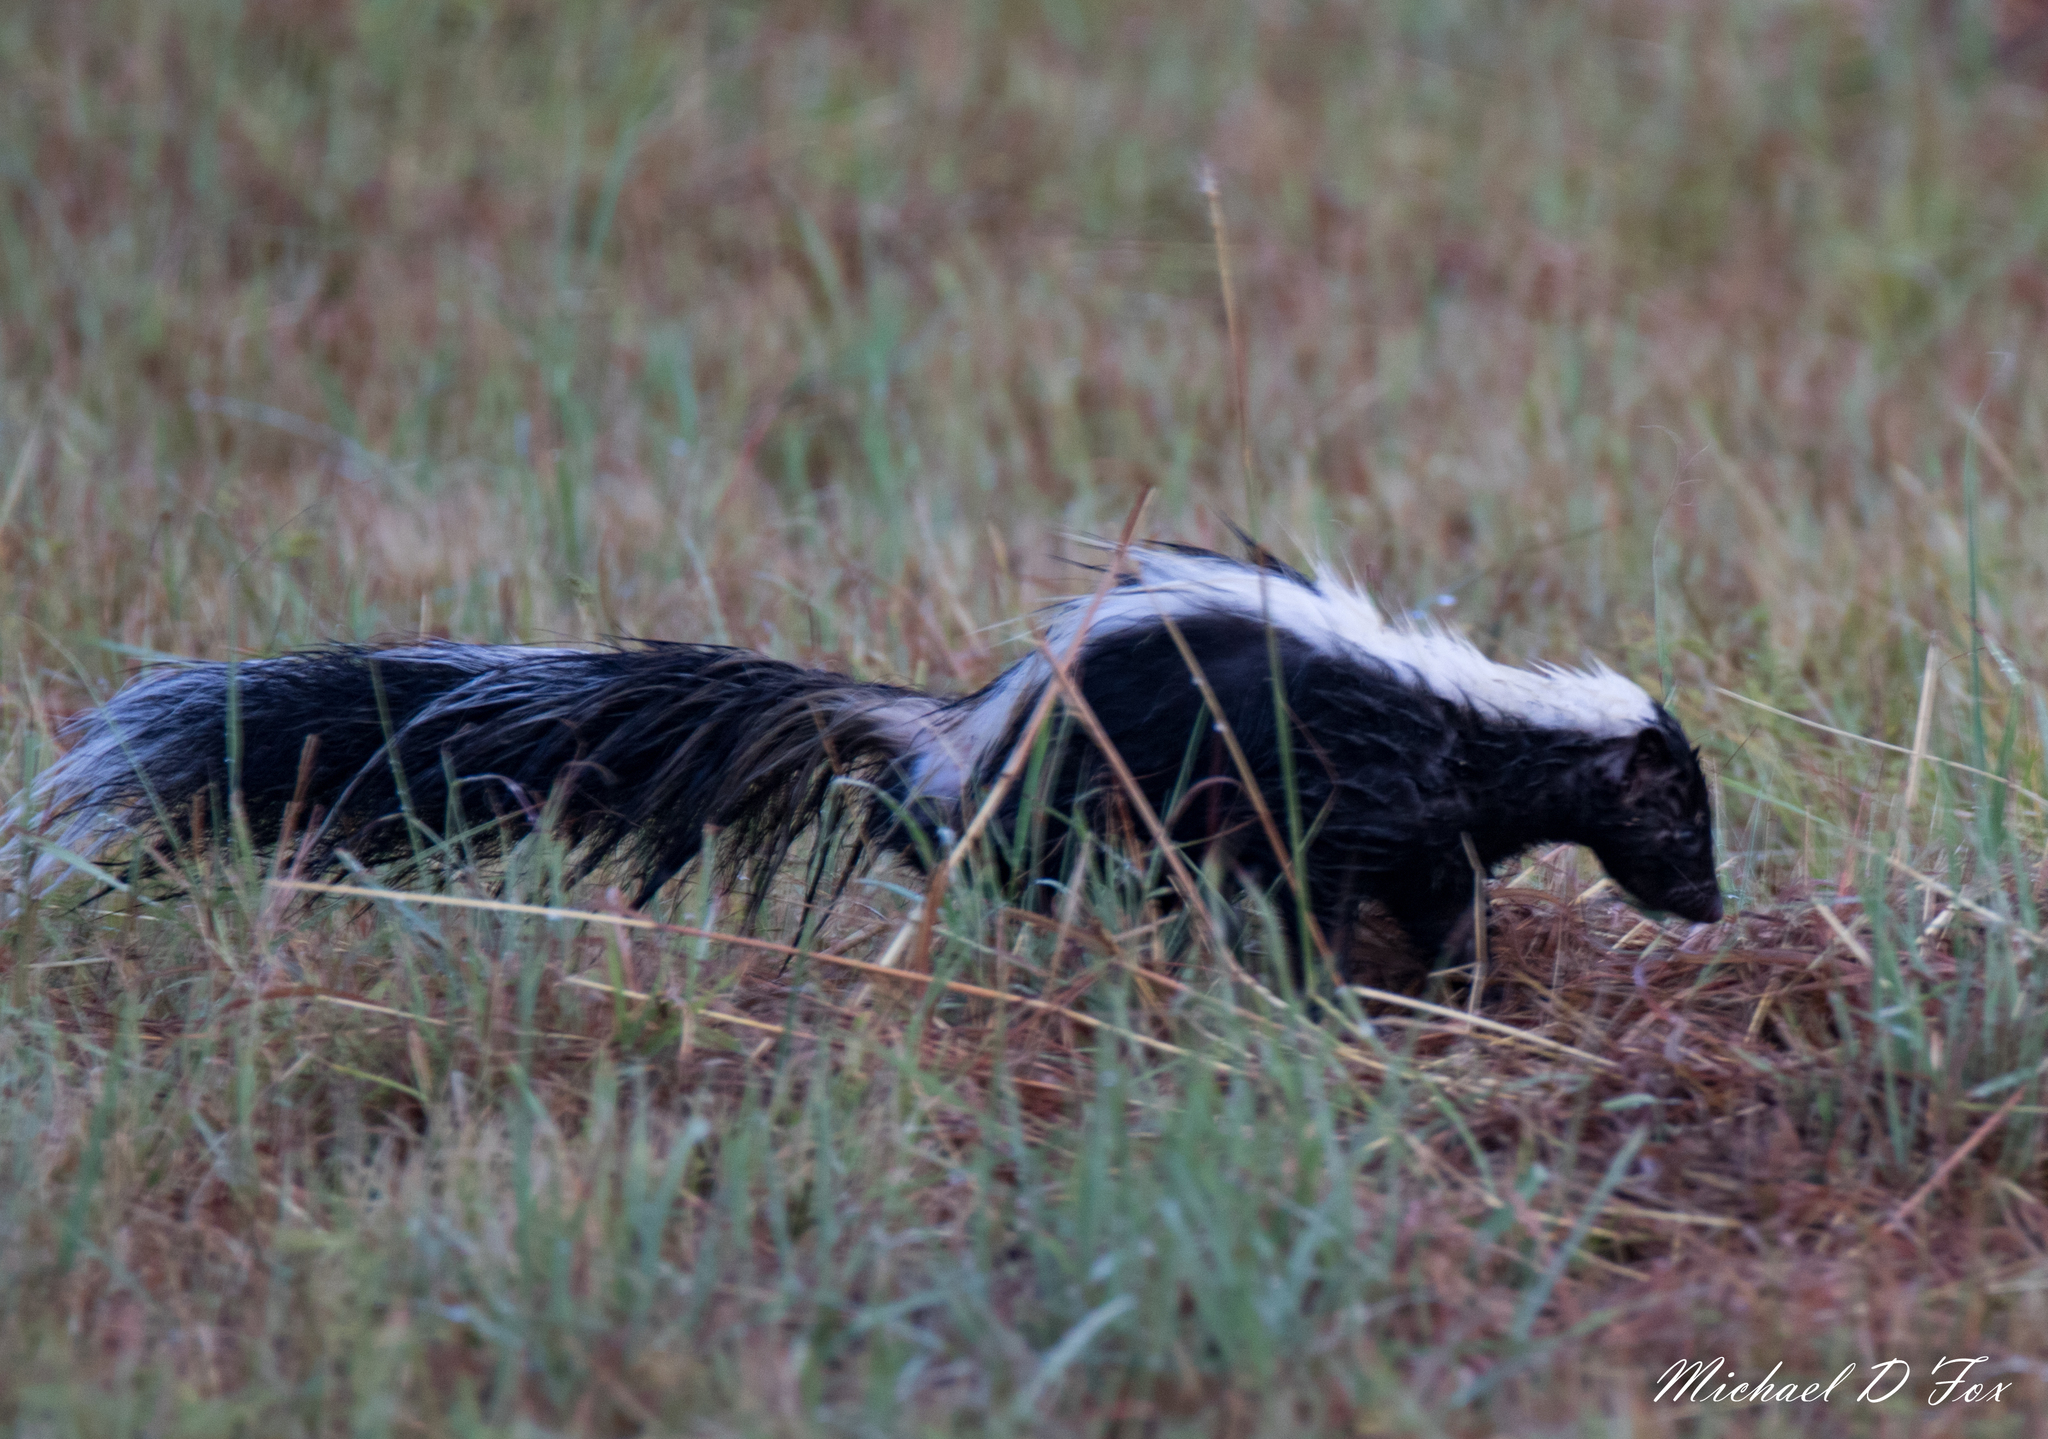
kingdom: Animalia
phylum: Chordata
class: Mammalia
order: Carnivora
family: Mephitidae
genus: Mephitis
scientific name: Mephitis mephitis
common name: Striped skunk
